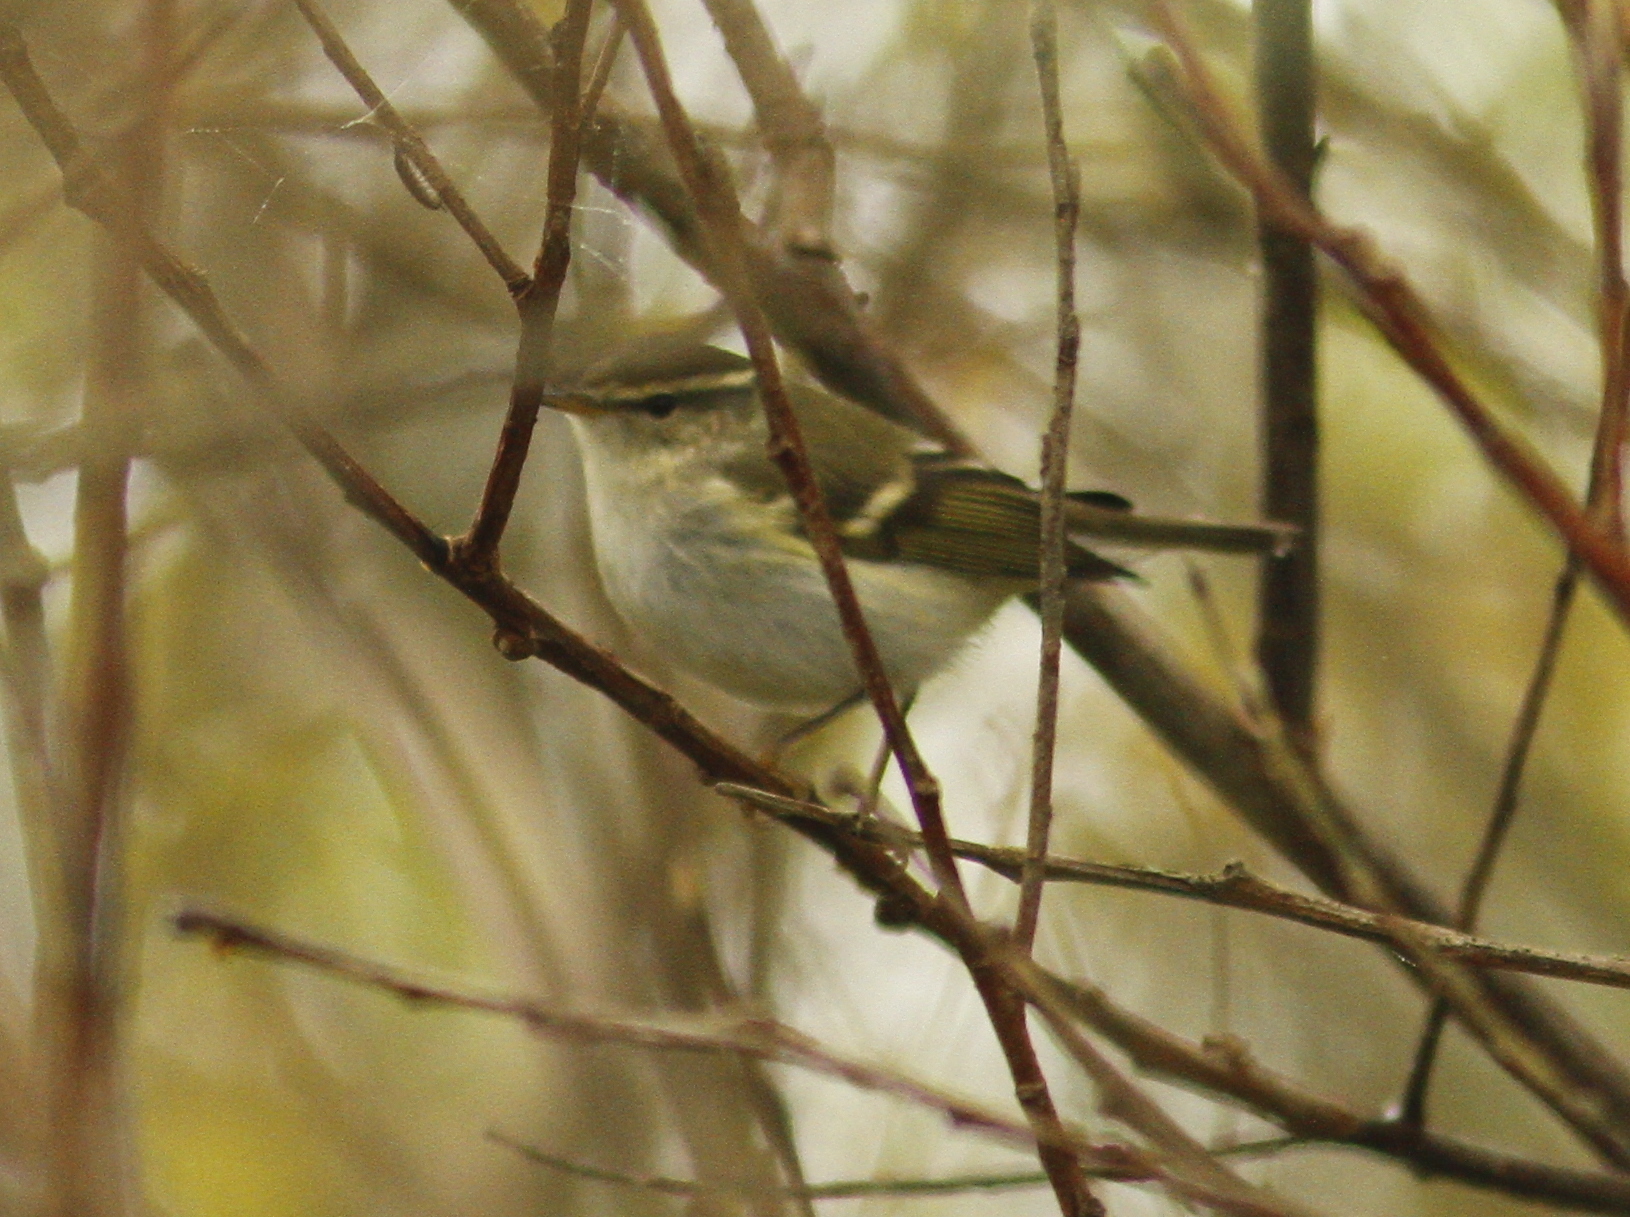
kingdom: Animalia
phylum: Chordata
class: Aves
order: Passeriformes
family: Phylloscopidae
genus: Phylloscopus
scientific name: Phylloscopus inornatus
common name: Yellow-browed warbler
